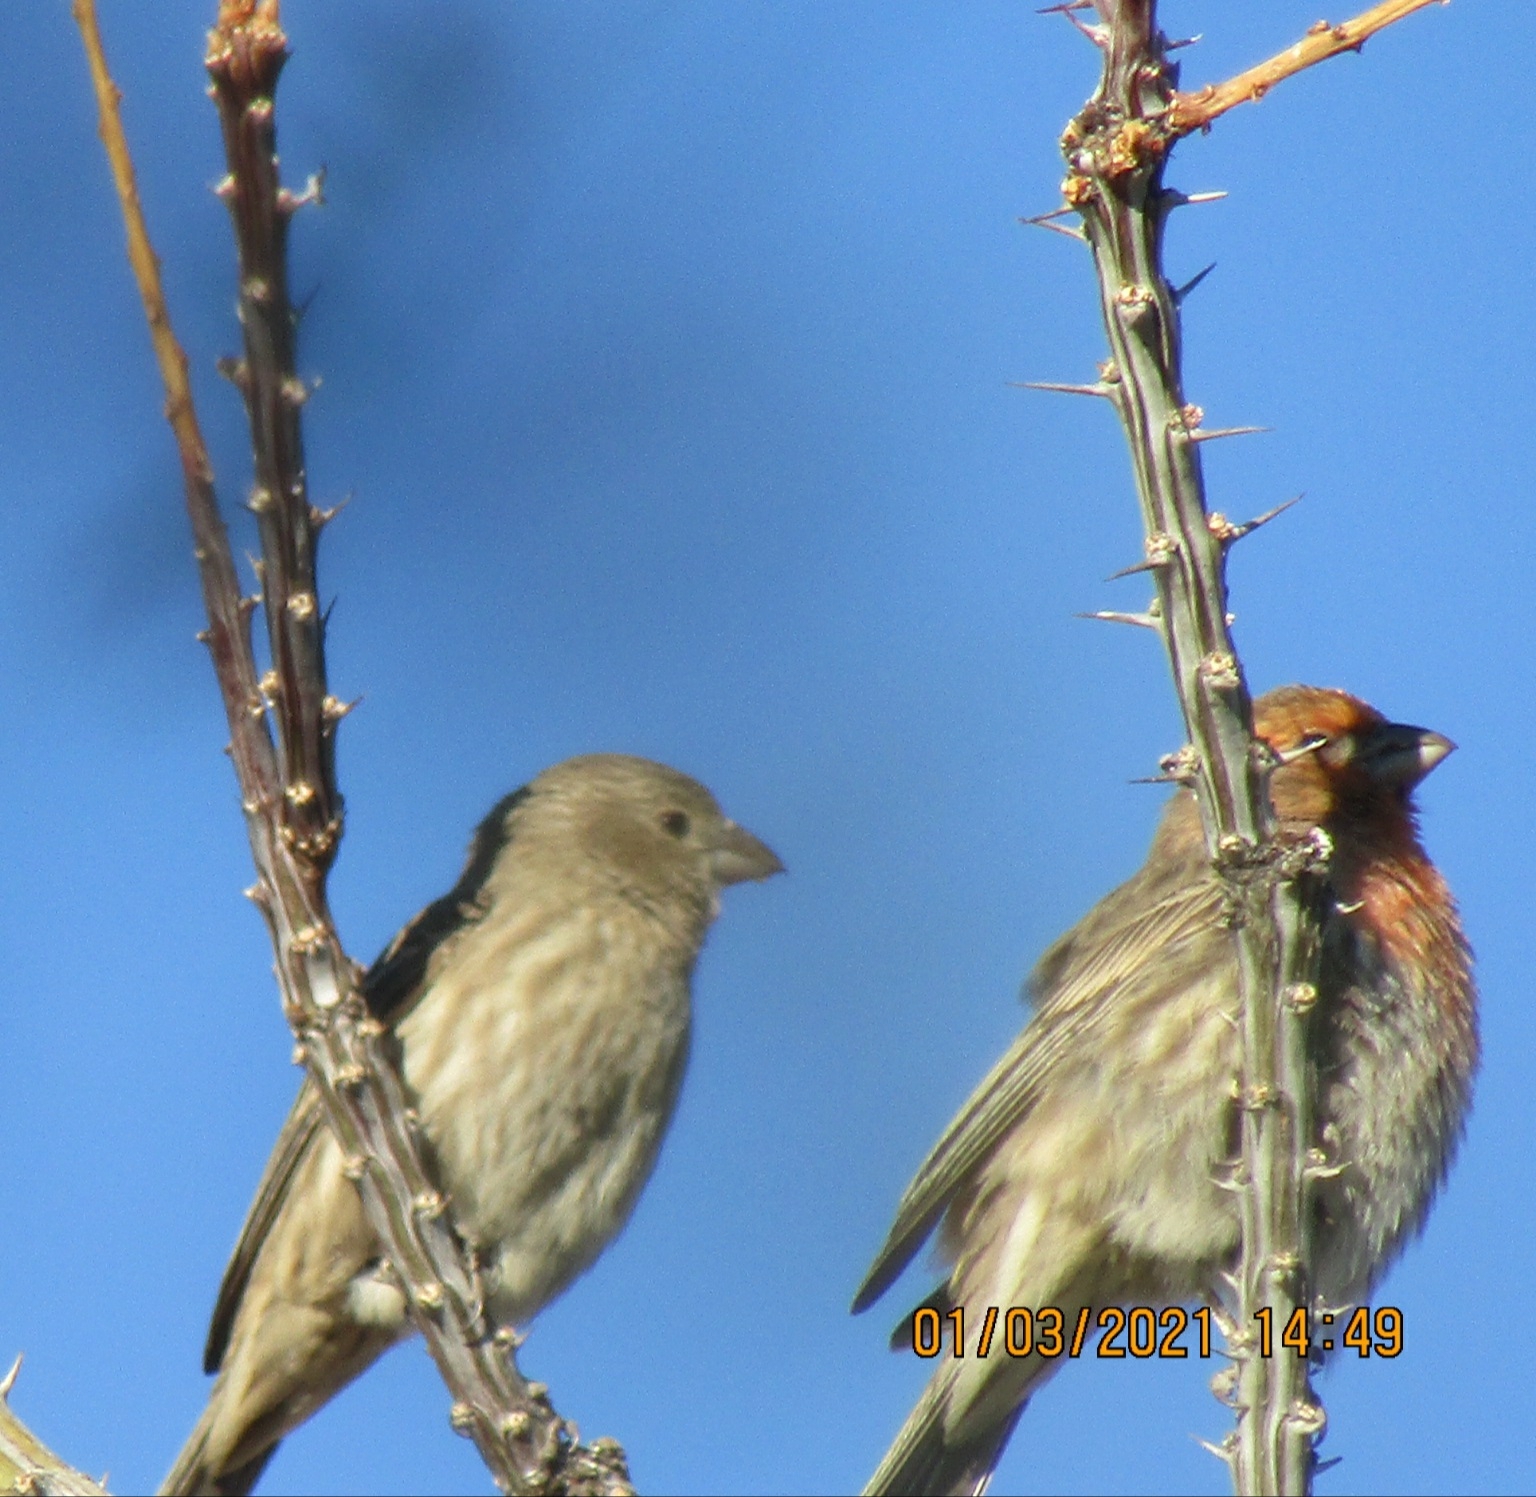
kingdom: Animalia
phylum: Chordata
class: Aves
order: Passeriformes
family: Fringillidae
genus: Haemorhous
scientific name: Haemorhous mexicanus
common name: House finch
